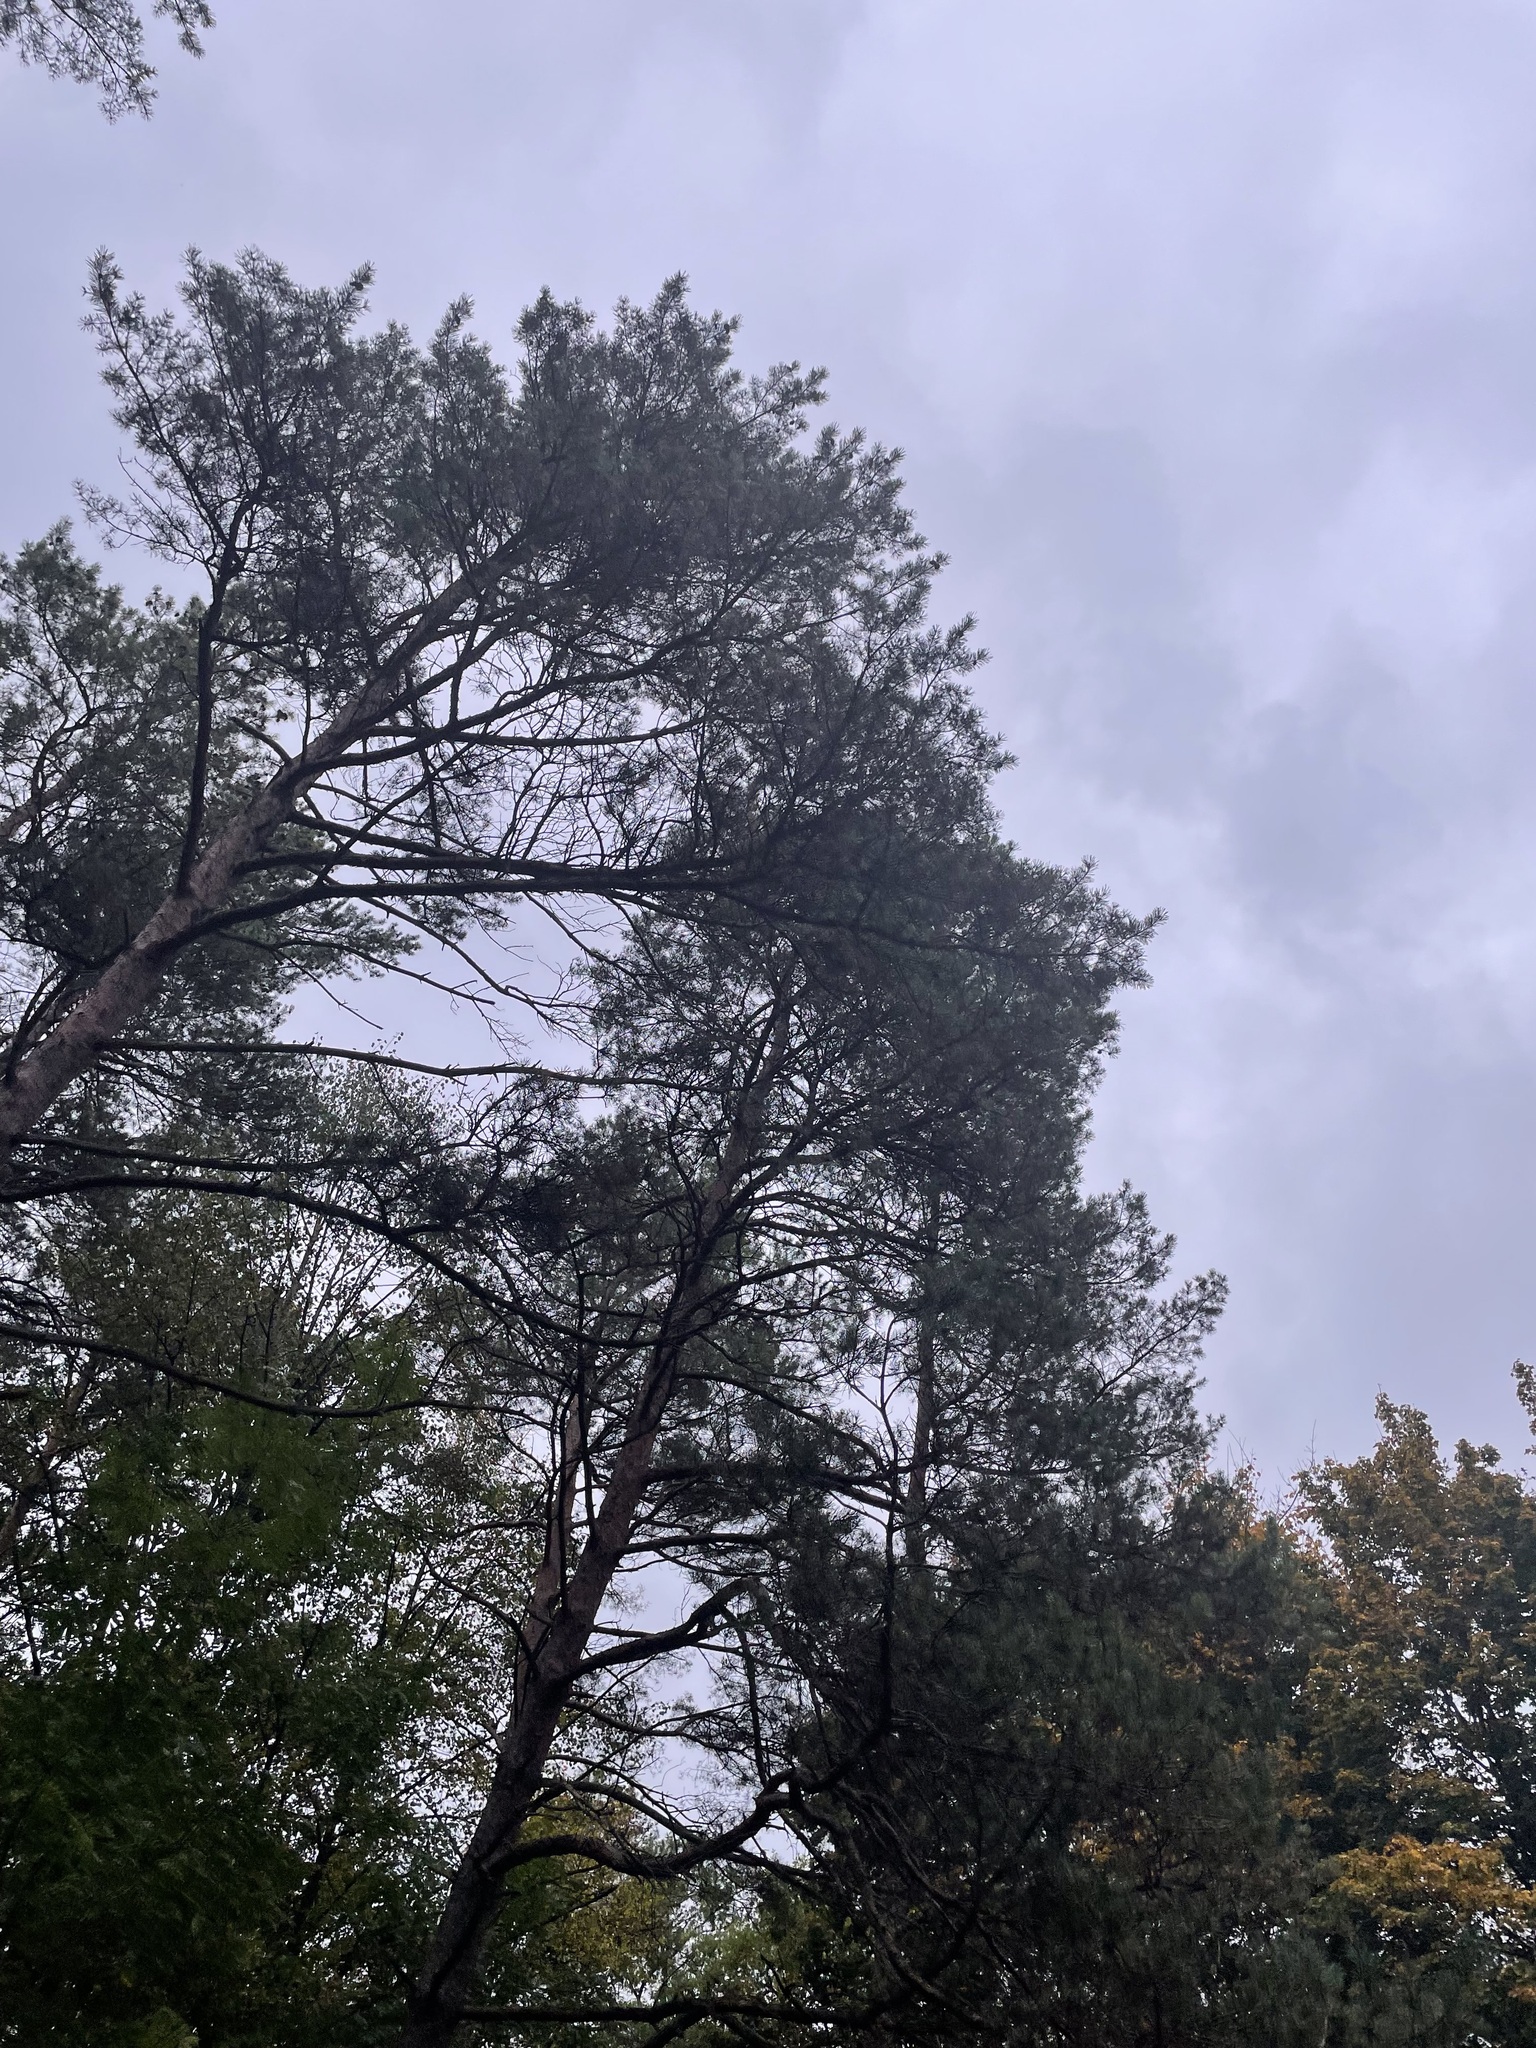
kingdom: Plantae
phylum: Tracheophyta
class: Pinopsida
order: Pinales
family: Pinaceae
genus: Pinus
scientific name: Pinus sylvestris
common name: Scots pine
